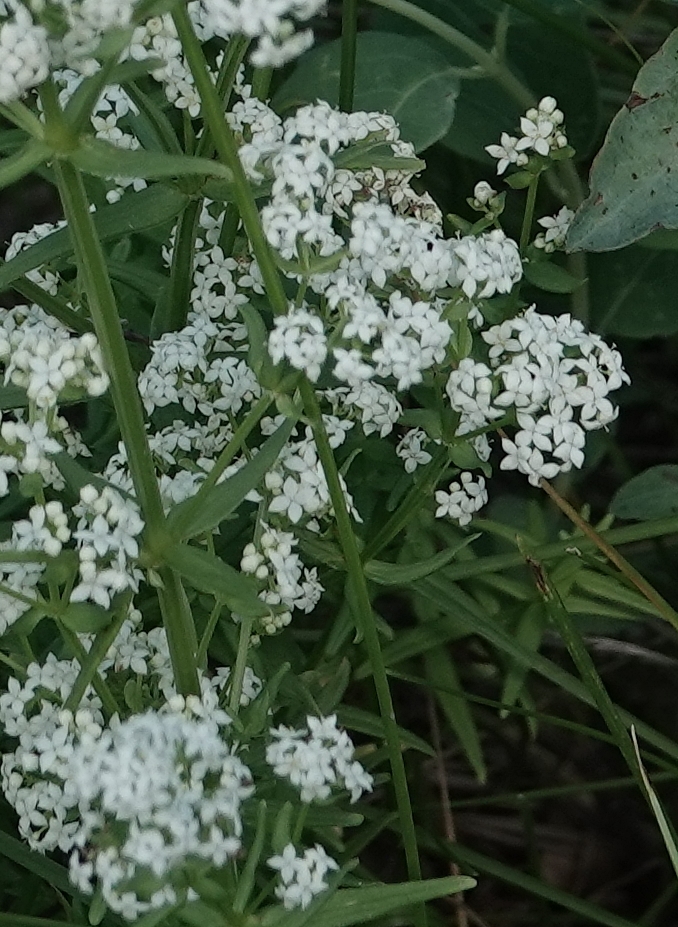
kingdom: Plantae
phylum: Tracheophyta
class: Magnoliopsida
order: Gentianales
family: Rubiaceae
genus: Galium
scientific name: Galium boreale
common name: Northern bedstraw
